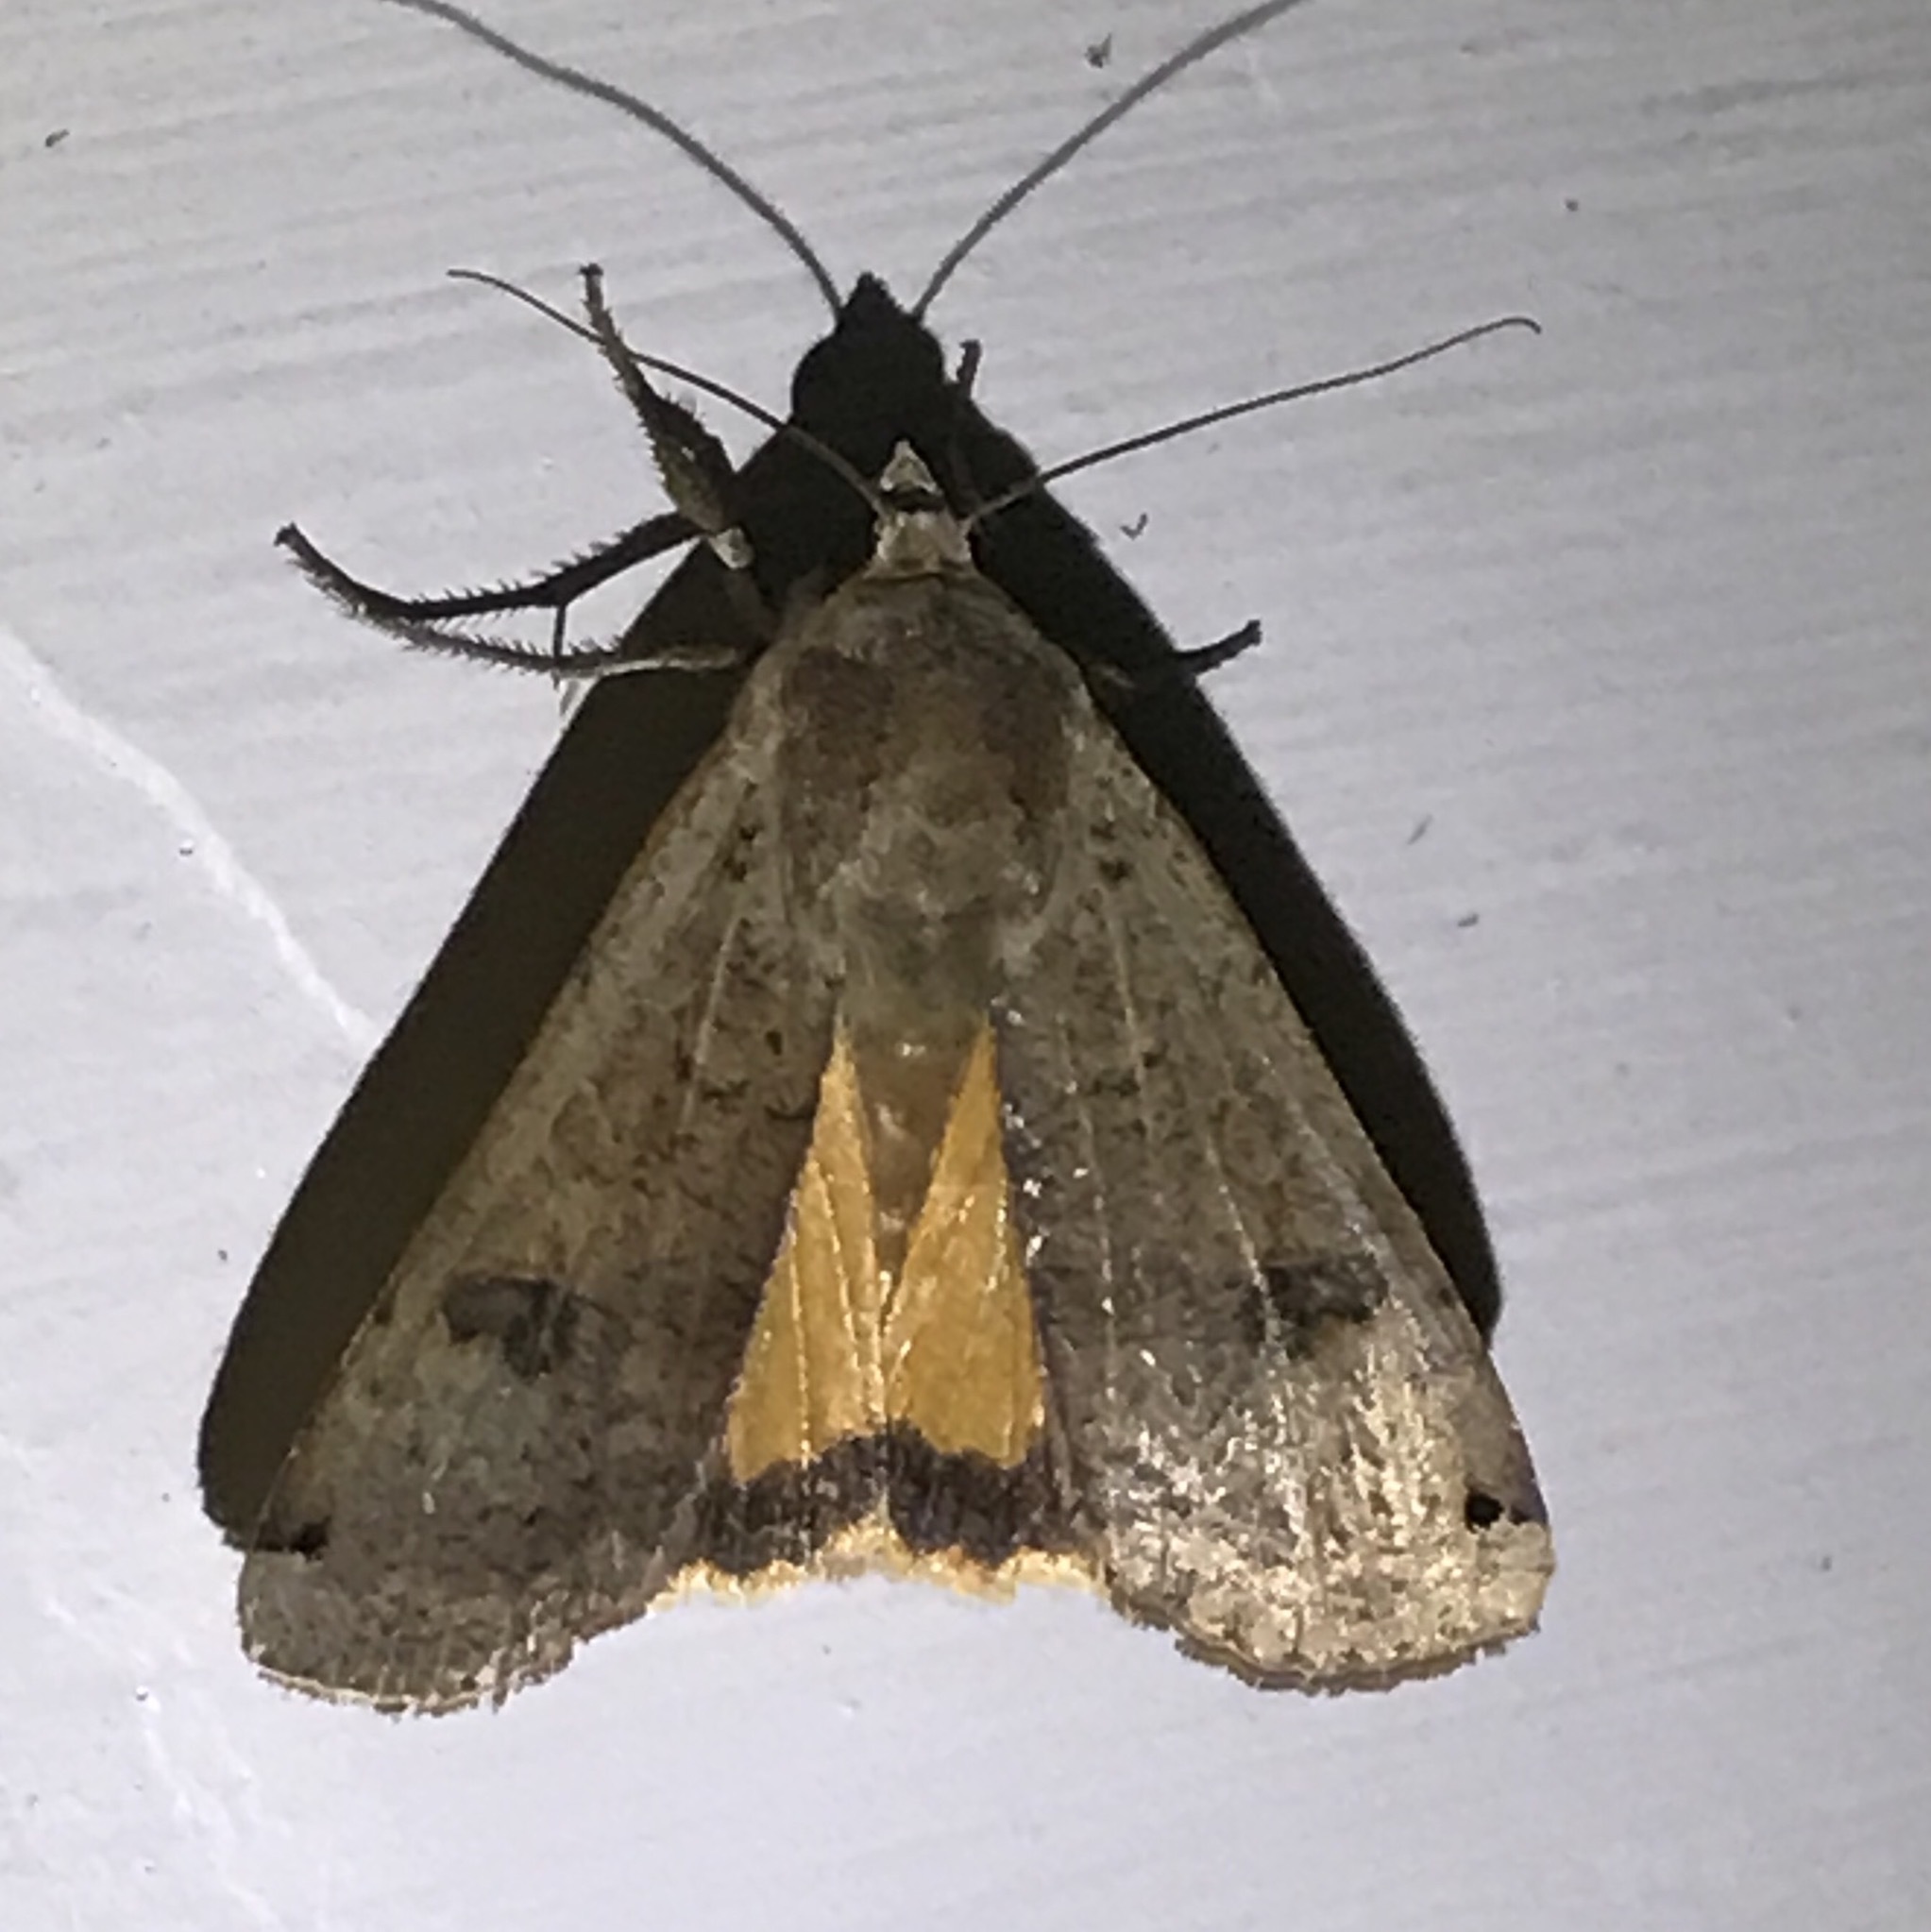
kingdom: Animalia
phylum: Arthropoda
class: Insecta
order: Lepidoptera
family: Noctuidae
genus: Noctua
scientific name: Noctua pronuba
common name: Large yellow underwing
